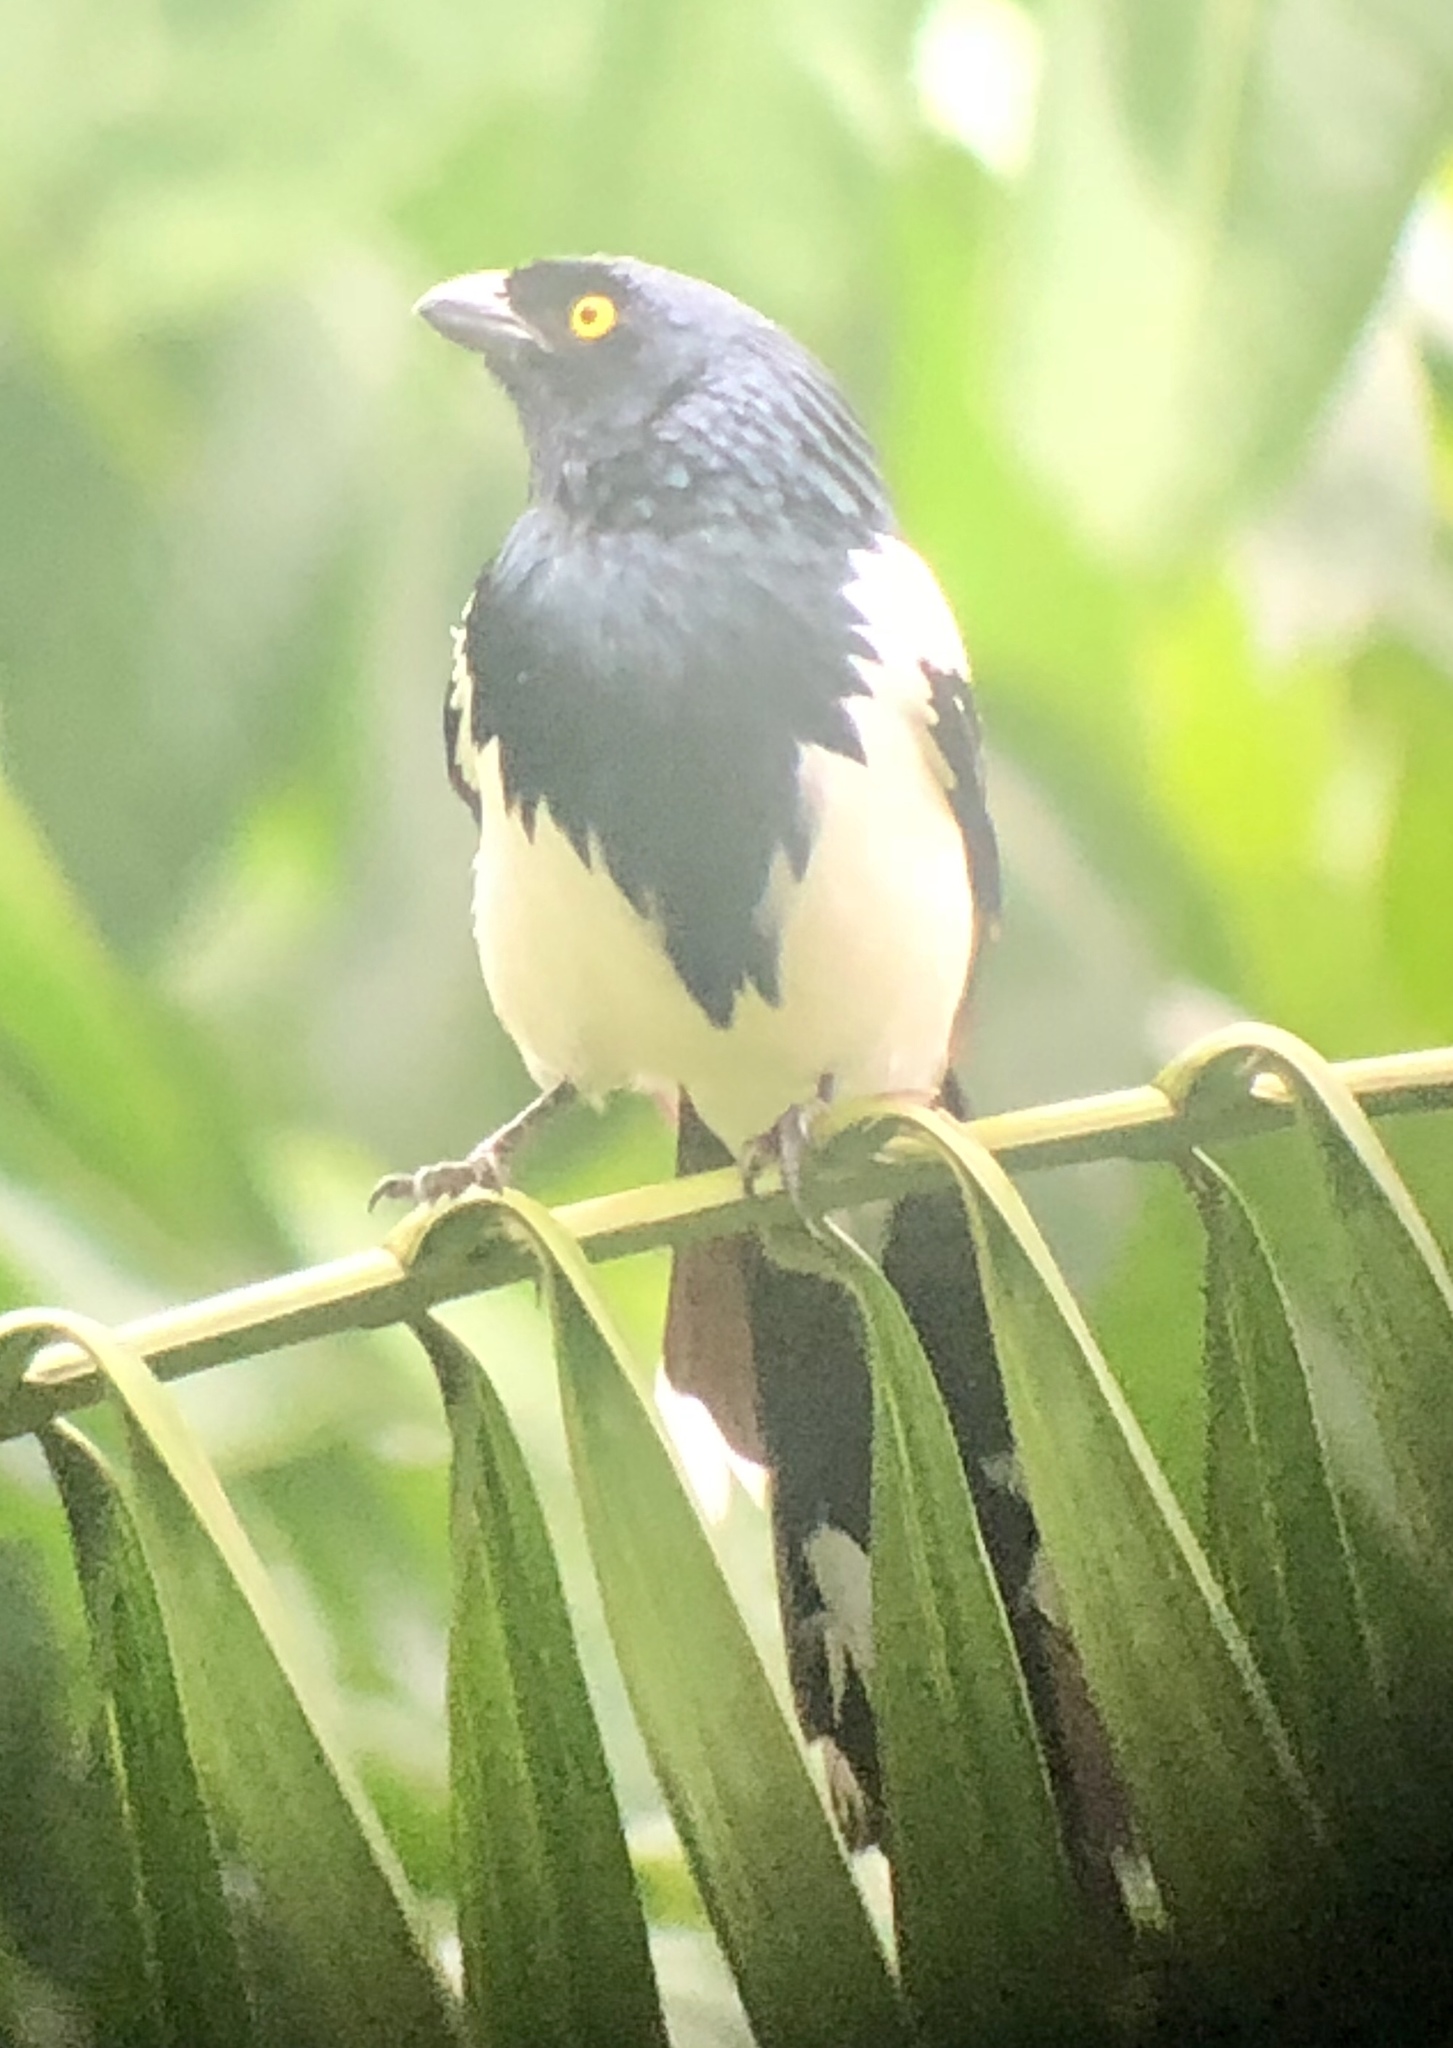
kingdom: Animalia
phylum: Chordata
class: Aves
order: Passeriformes
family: Thraupidae
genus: Cissopis
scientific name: Cissopis leverianus
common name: Magpie tanager
